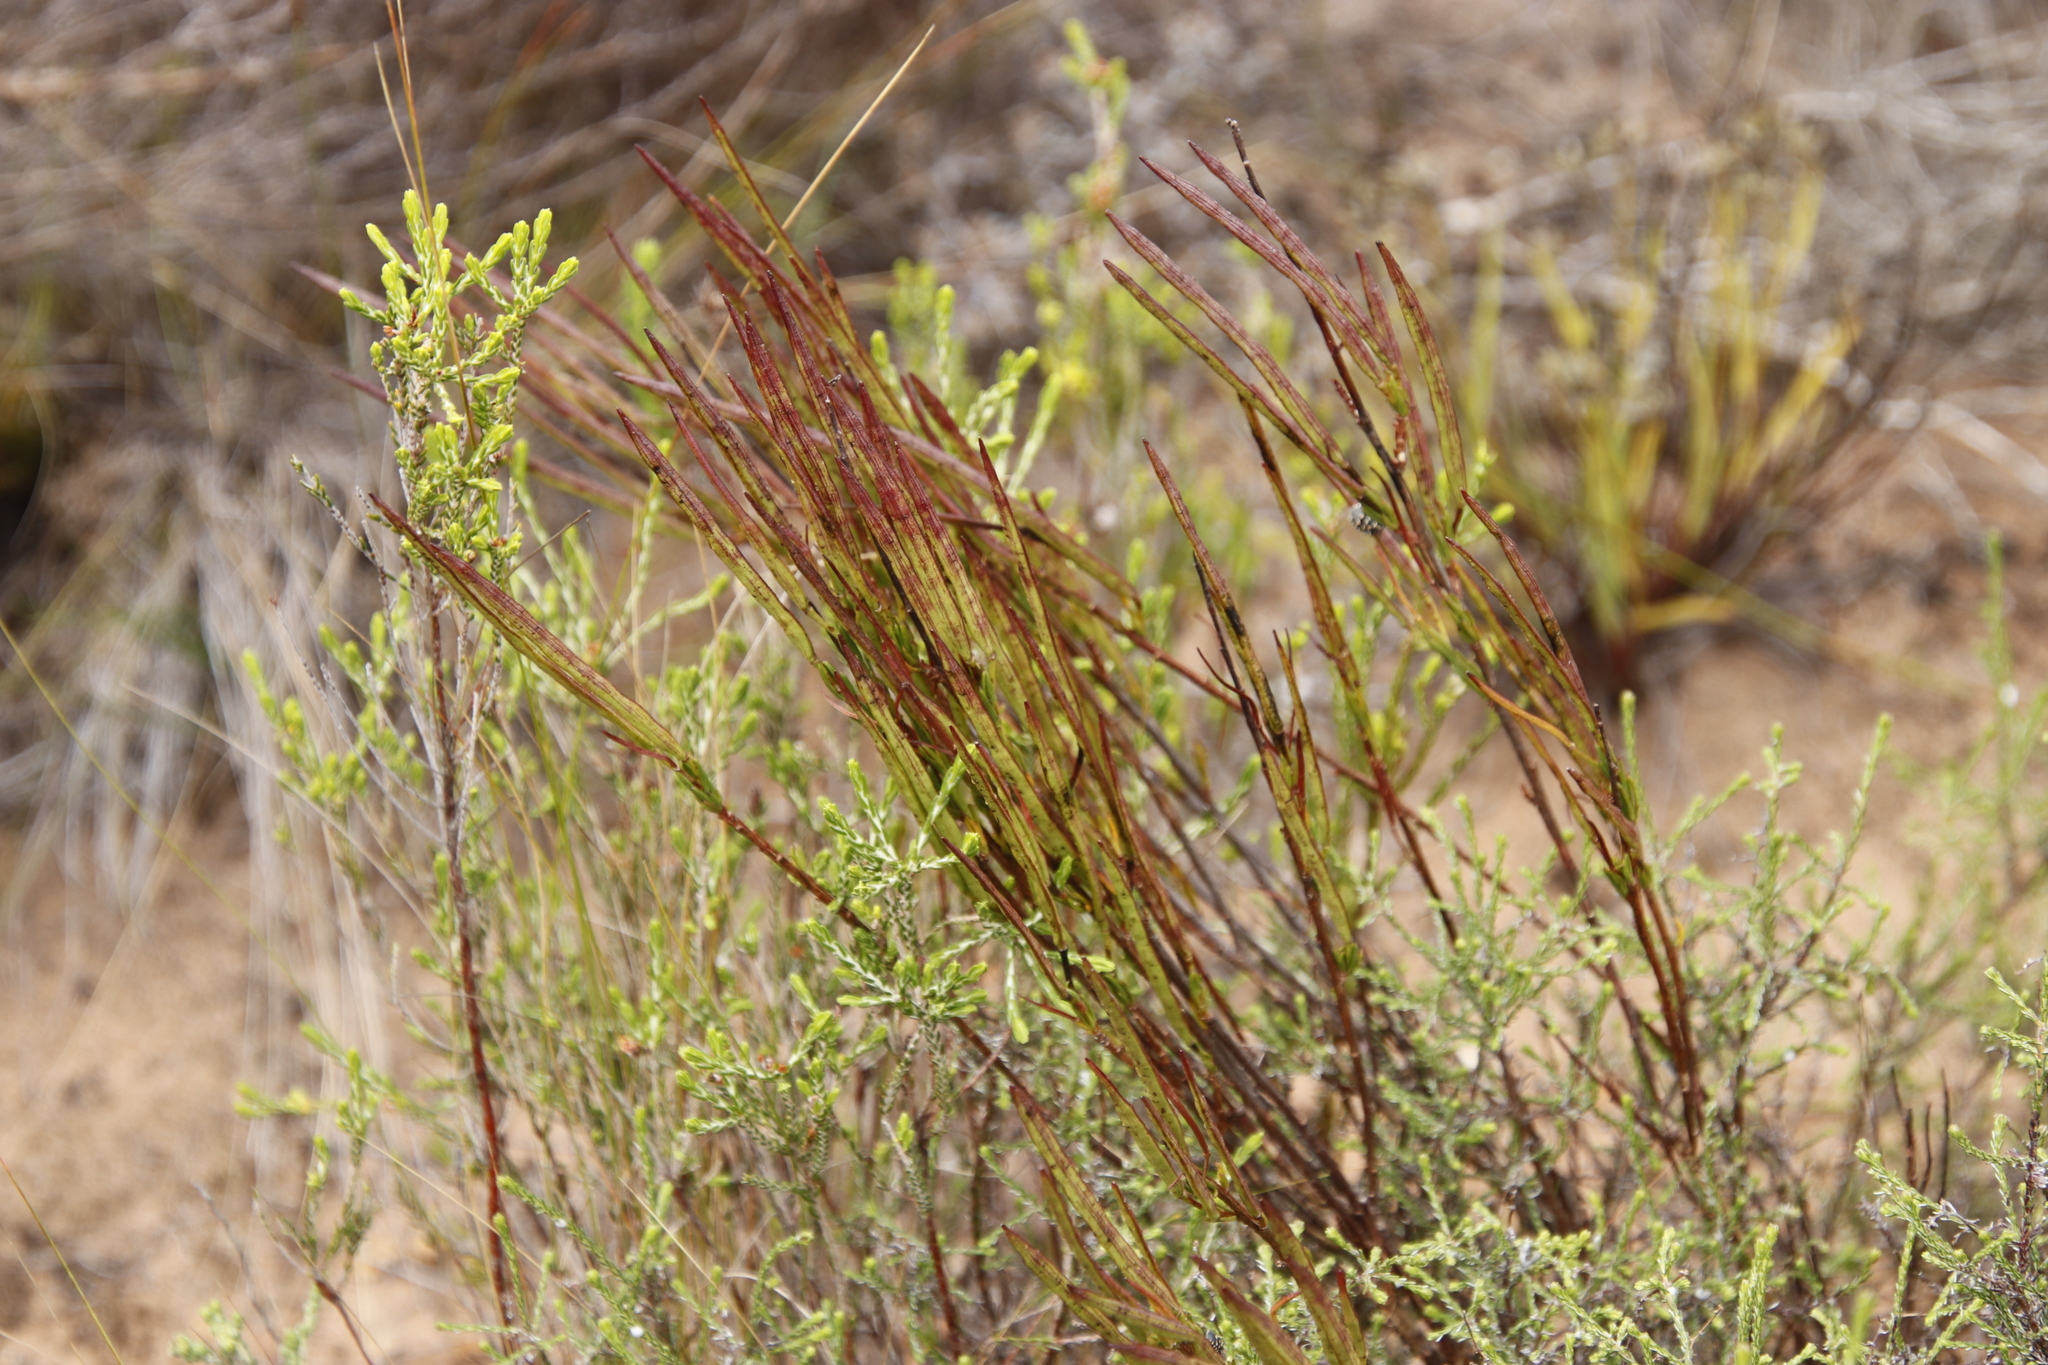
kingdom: Plantae
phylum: Tracheophyta
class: Magnoliopsida
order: Brassicales
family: Brassicaceae
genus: Heliophila
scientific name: Heliophila scoparia
